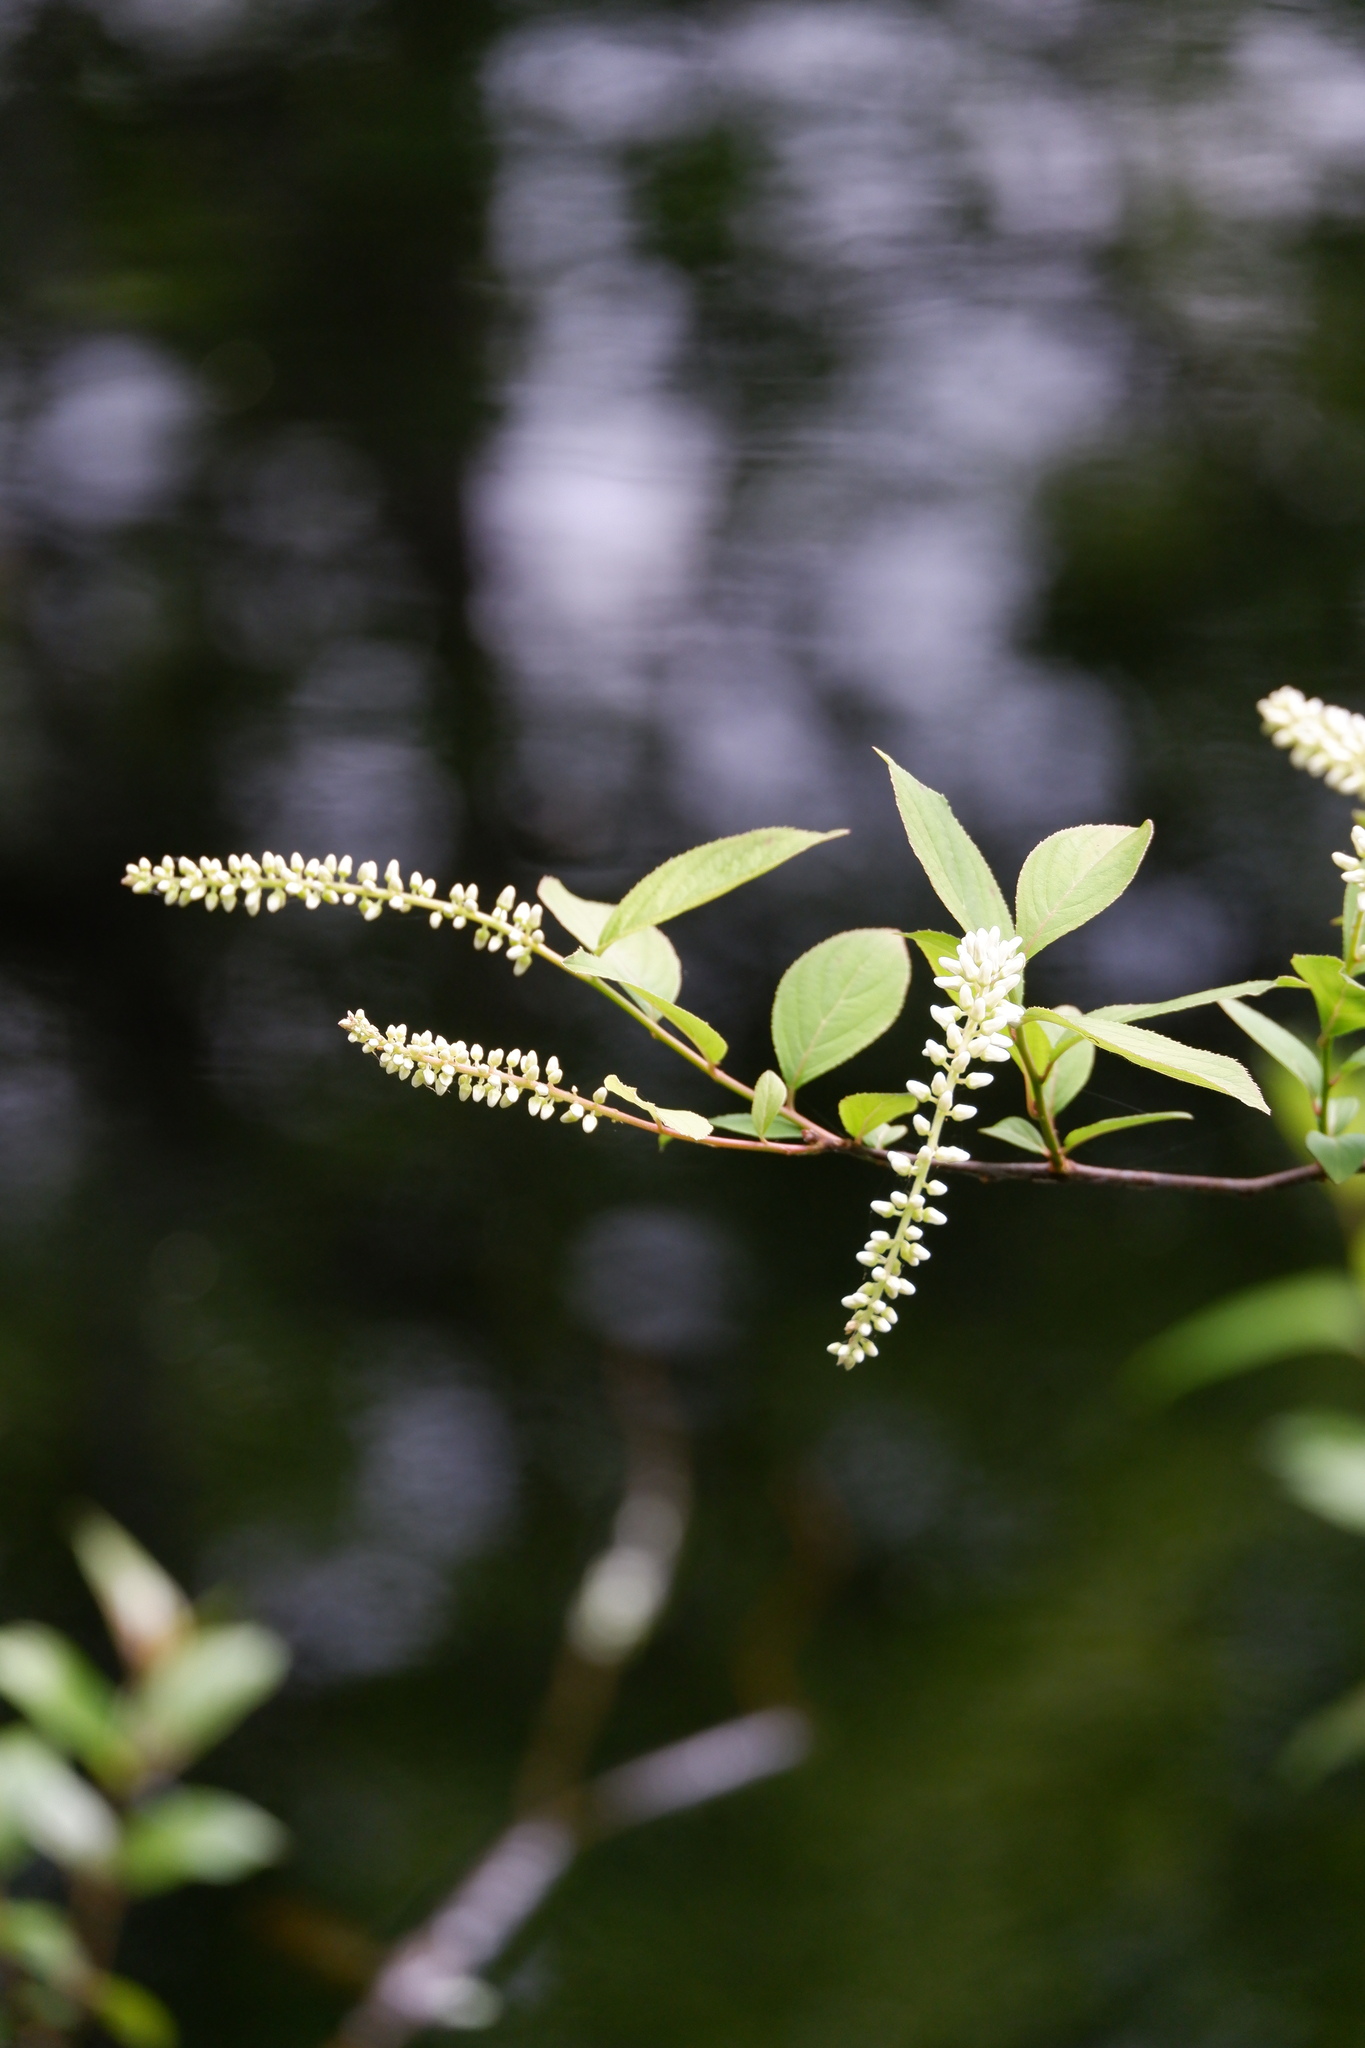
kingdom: Plantae
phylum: Tracheophyta
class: Magnoliopsida
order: Saxifragales
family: Iteaceae
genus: Itea
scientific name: Itea virginica
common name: Sweetspire
